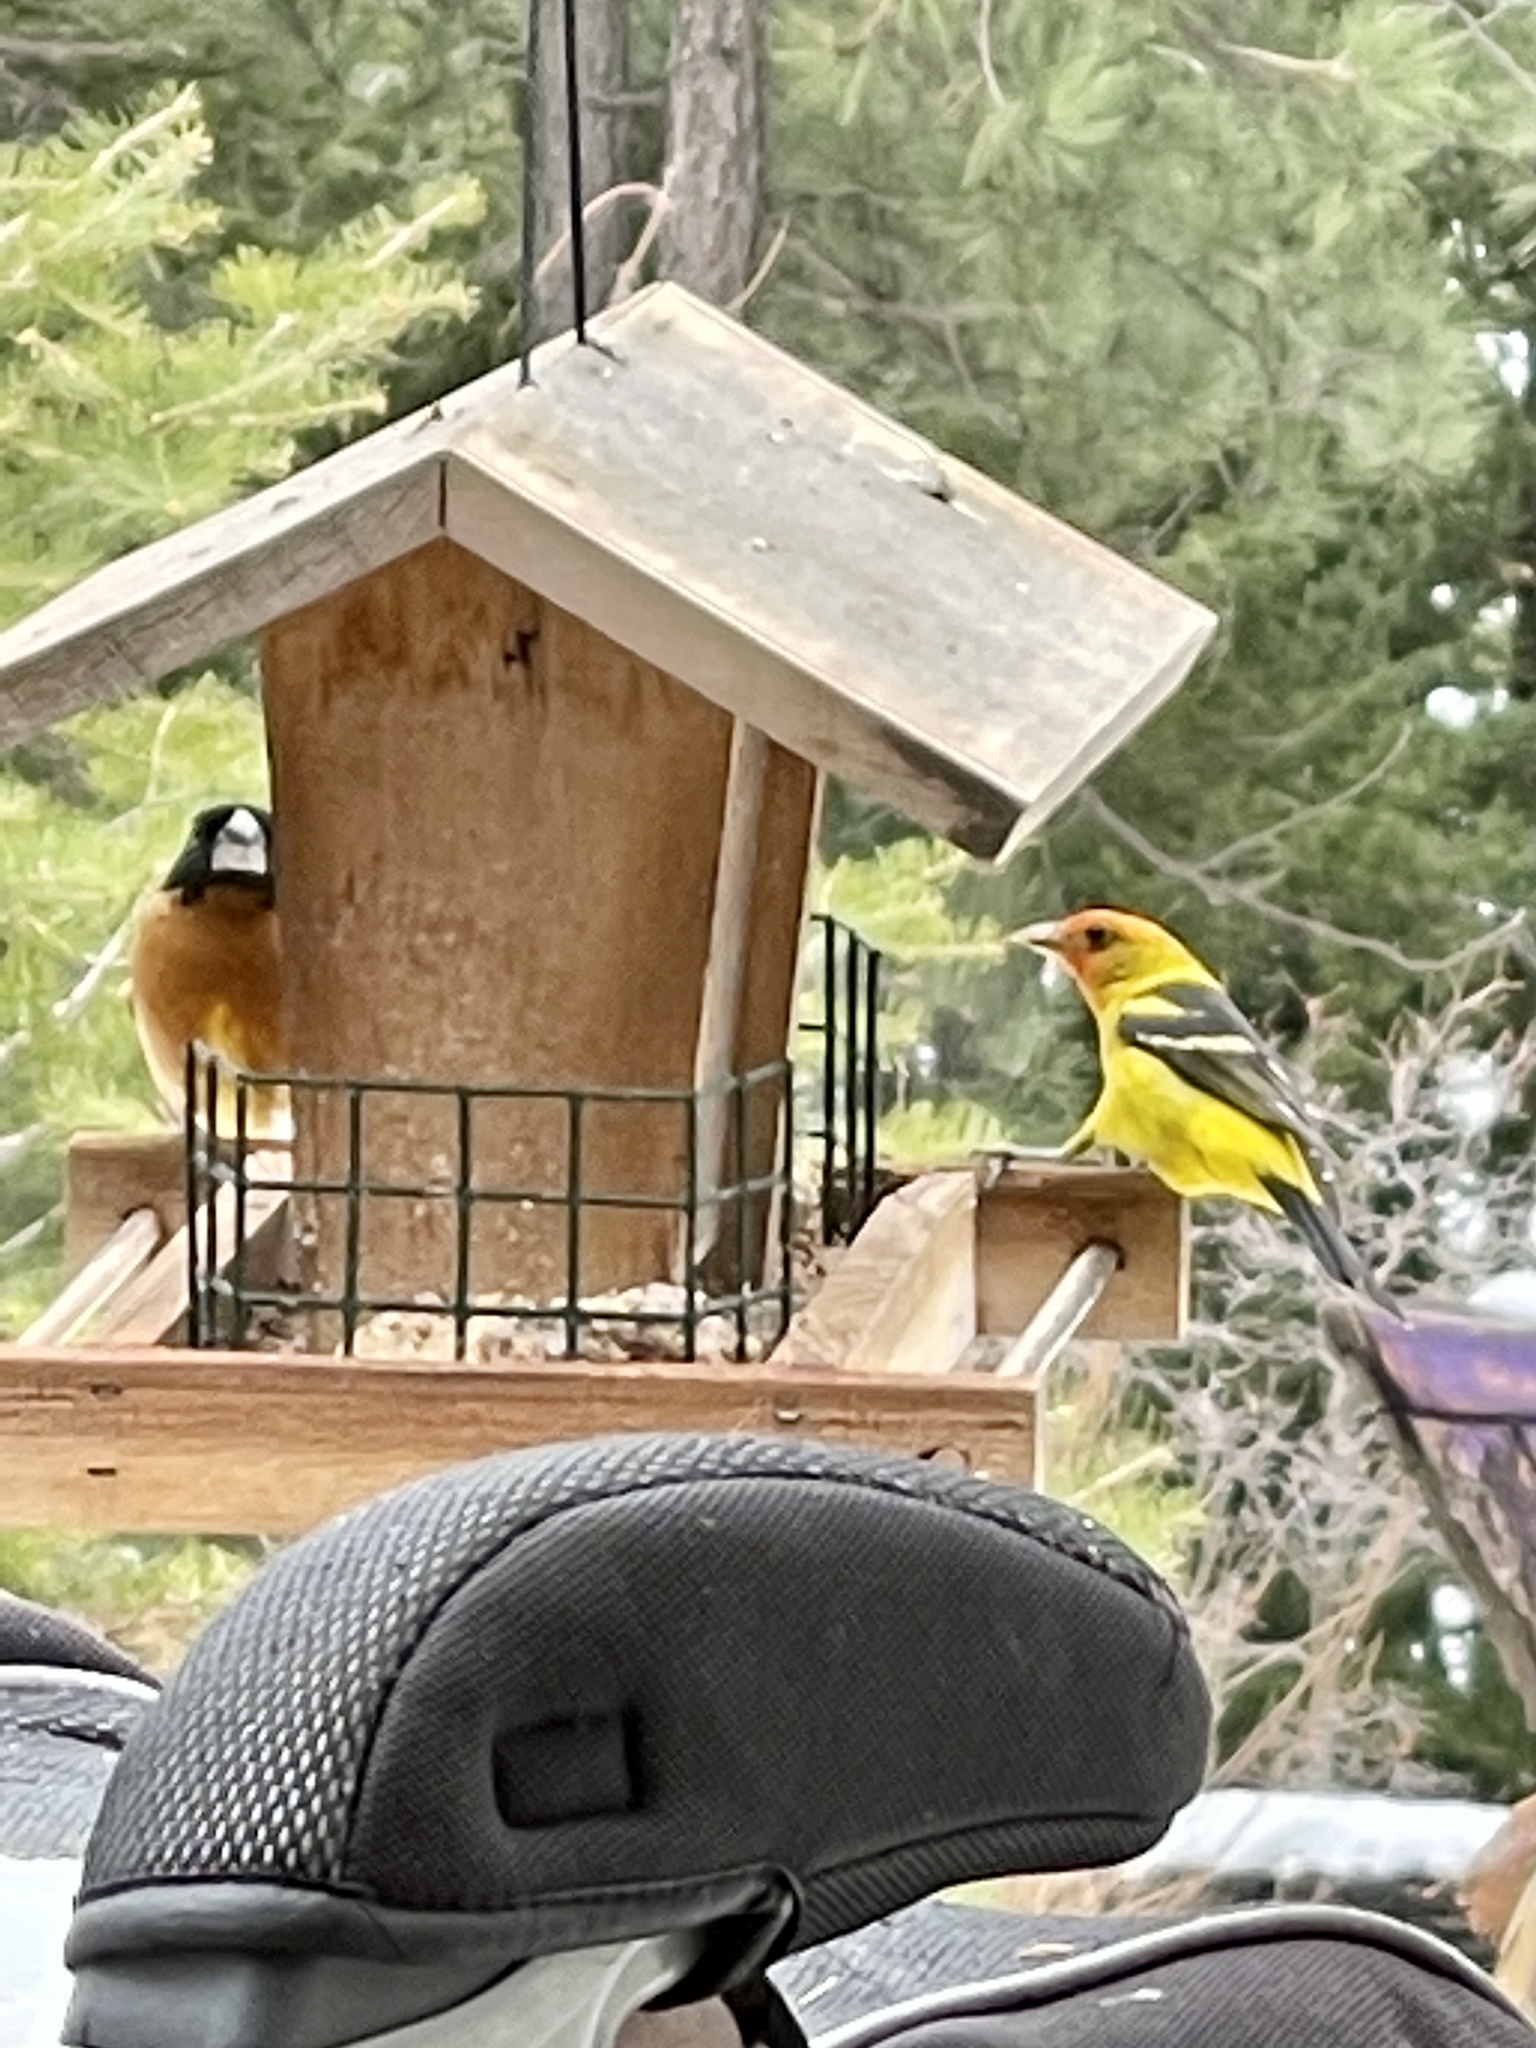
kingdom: Animalia
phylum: Chordata
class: Aves
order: Passeriformes
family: Cardinalidae
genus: Pheucticus
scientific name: Pheucticus melanocephalus
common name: Black-headed grosbeak
